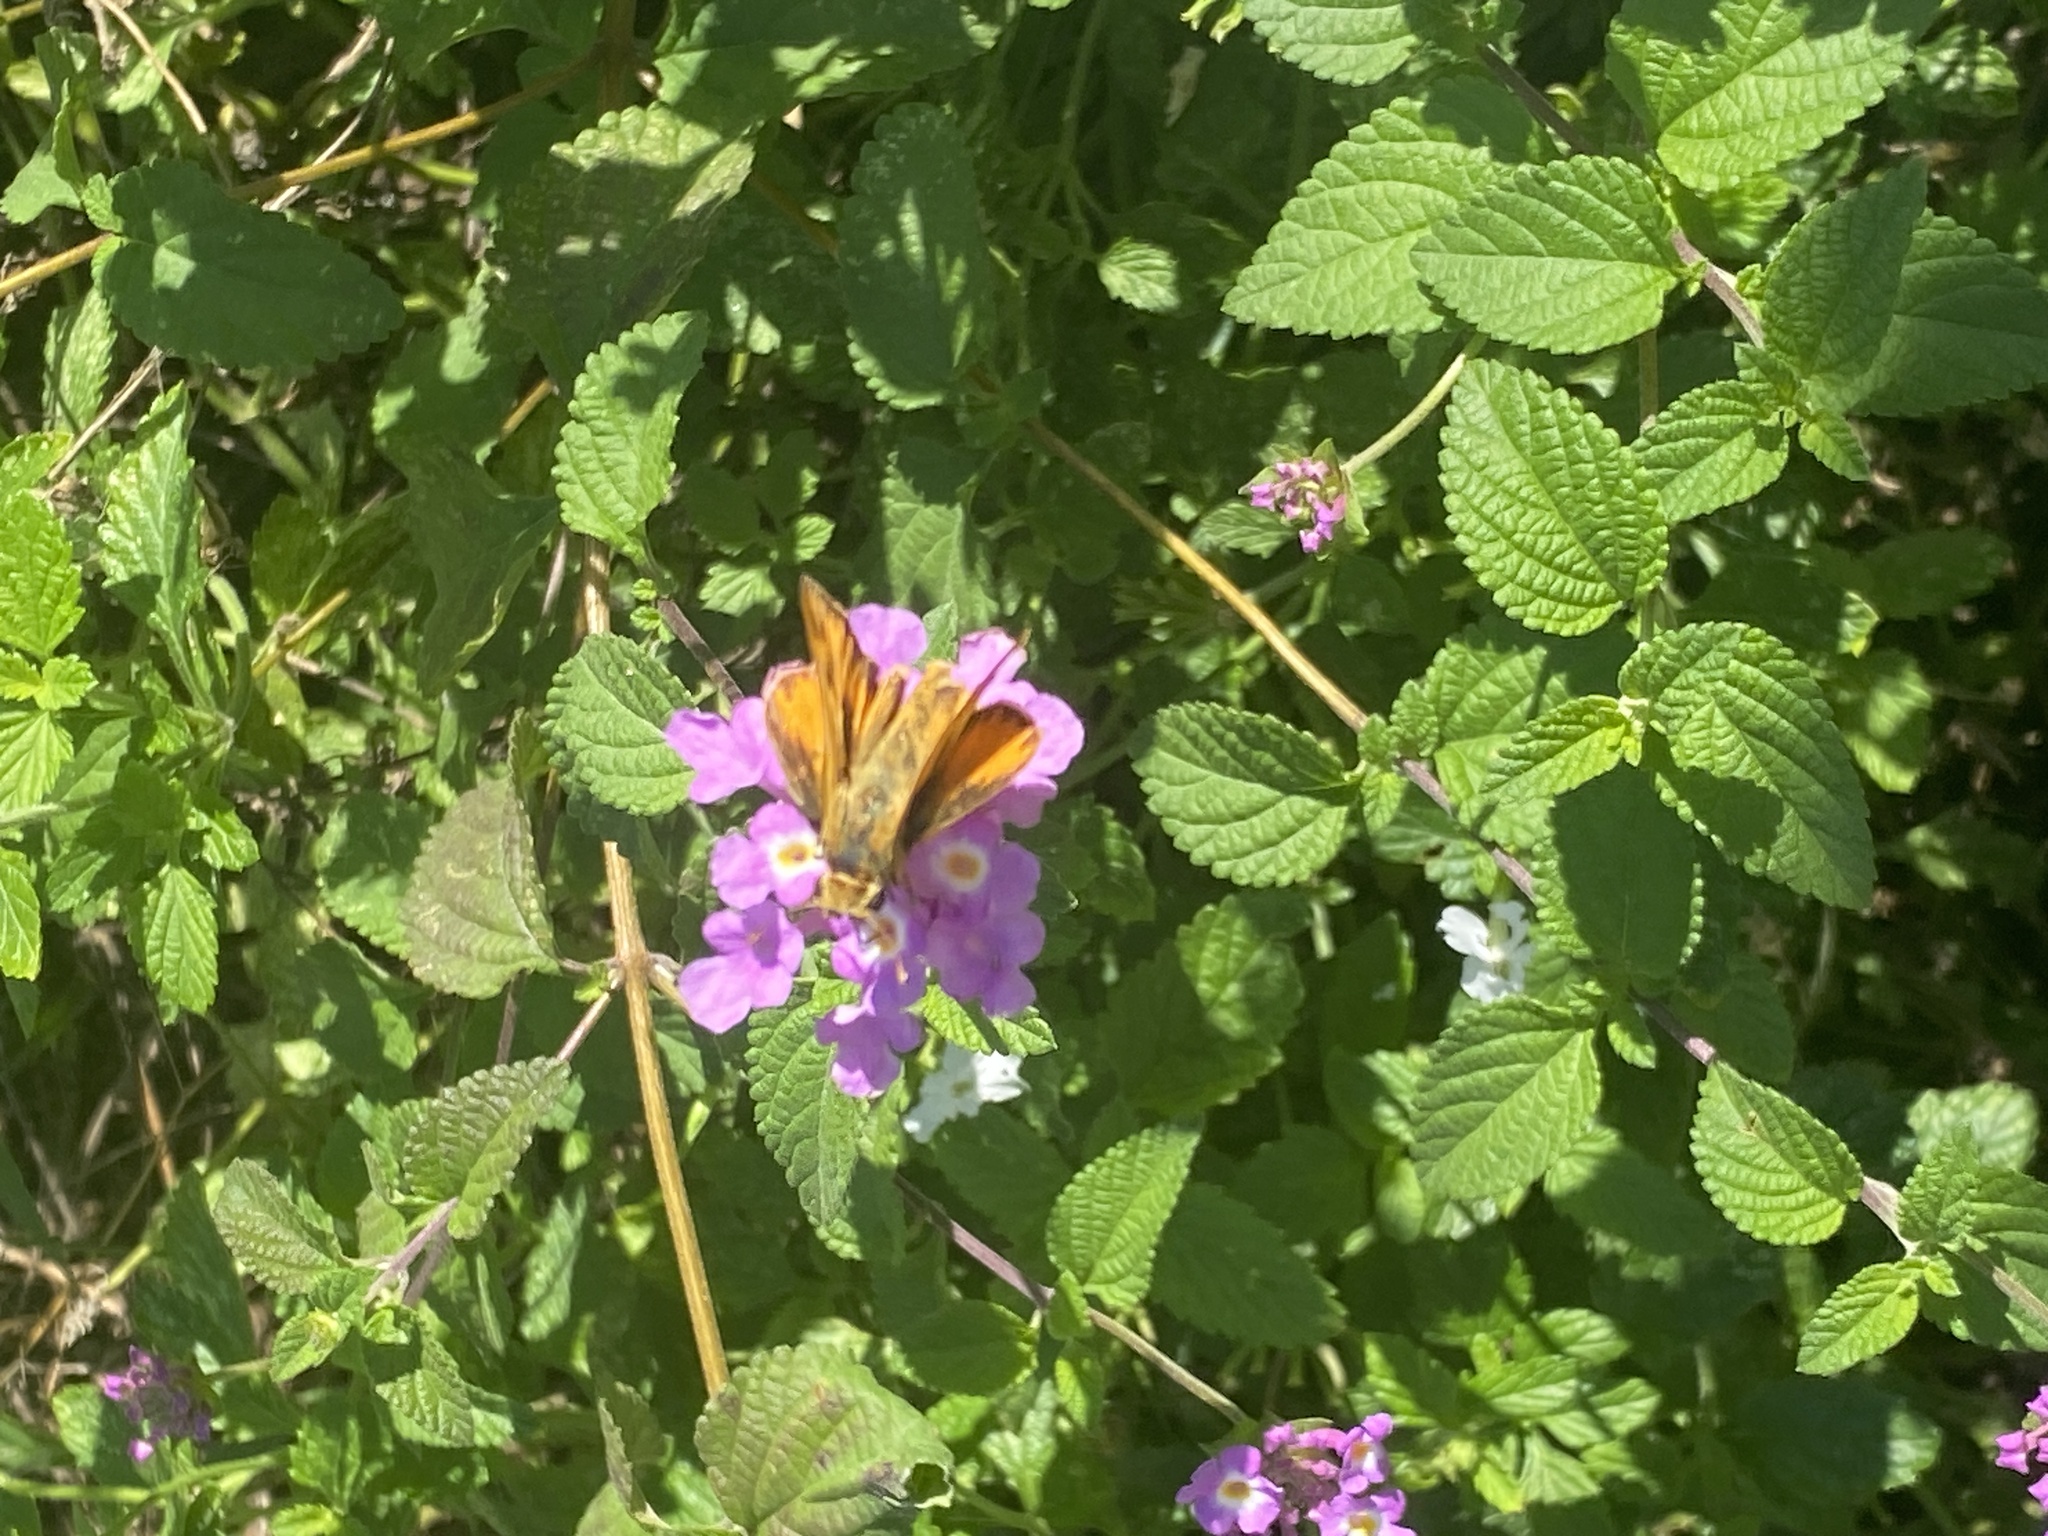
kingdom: Animalia
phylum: Arthropoda
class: Insecta
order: Lepidoptera
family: Hesperiidae
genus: Hylephila
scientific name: Hylephila phyleus
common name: Fiery skipper
